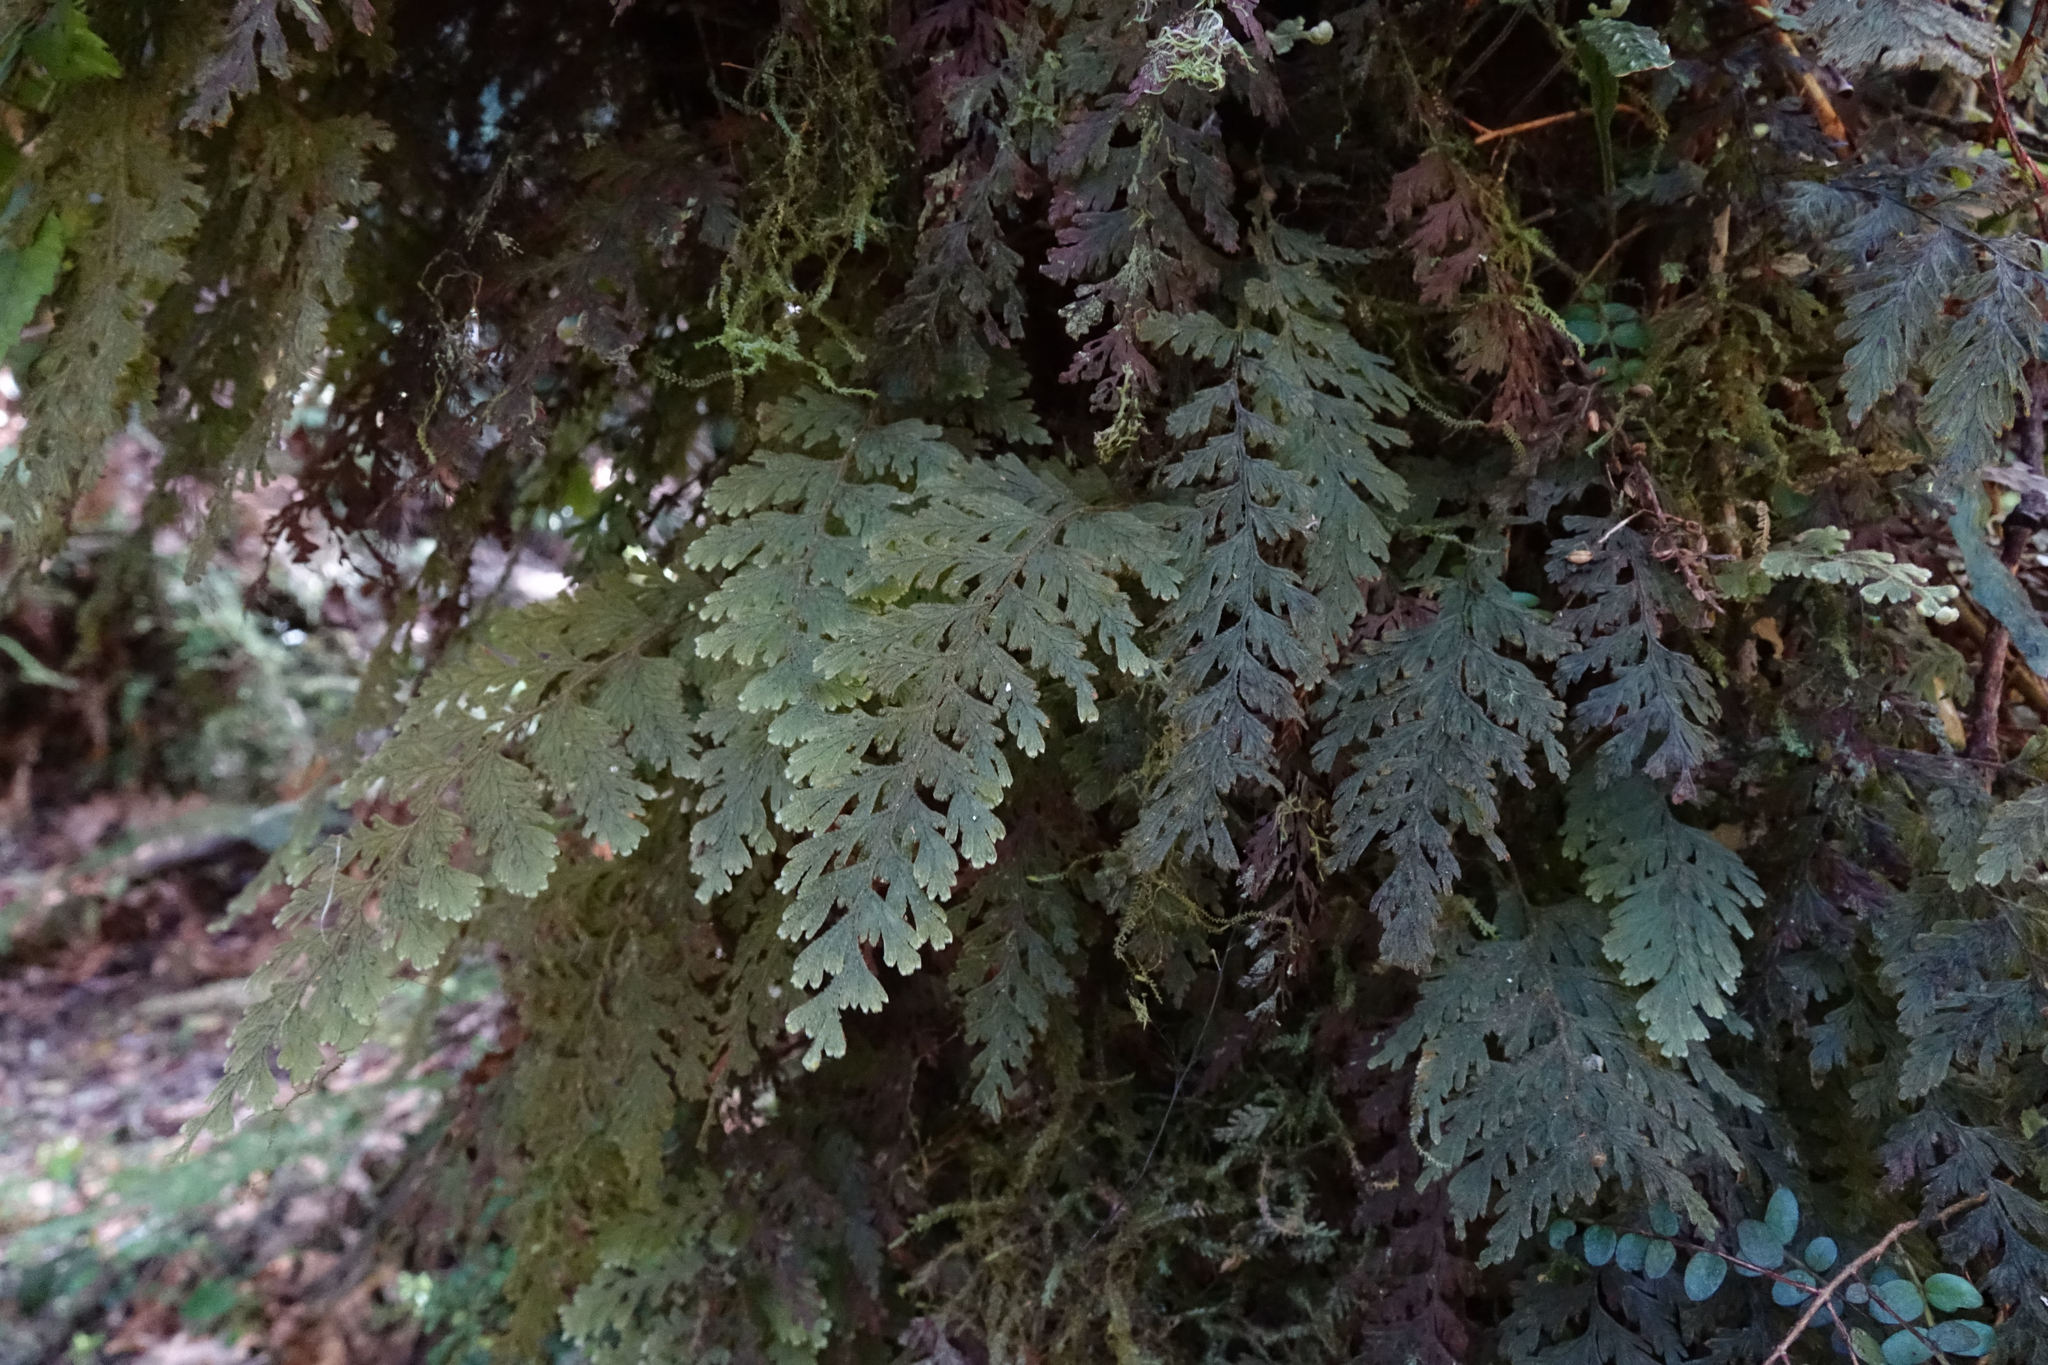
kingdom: Plantae
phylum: Tracheophyta
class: Polypodiopsida
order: Hymenophyllales
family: Hymenophyllaceae
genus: Hymenophyllum
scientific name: Hymenophyllum frankliniae
